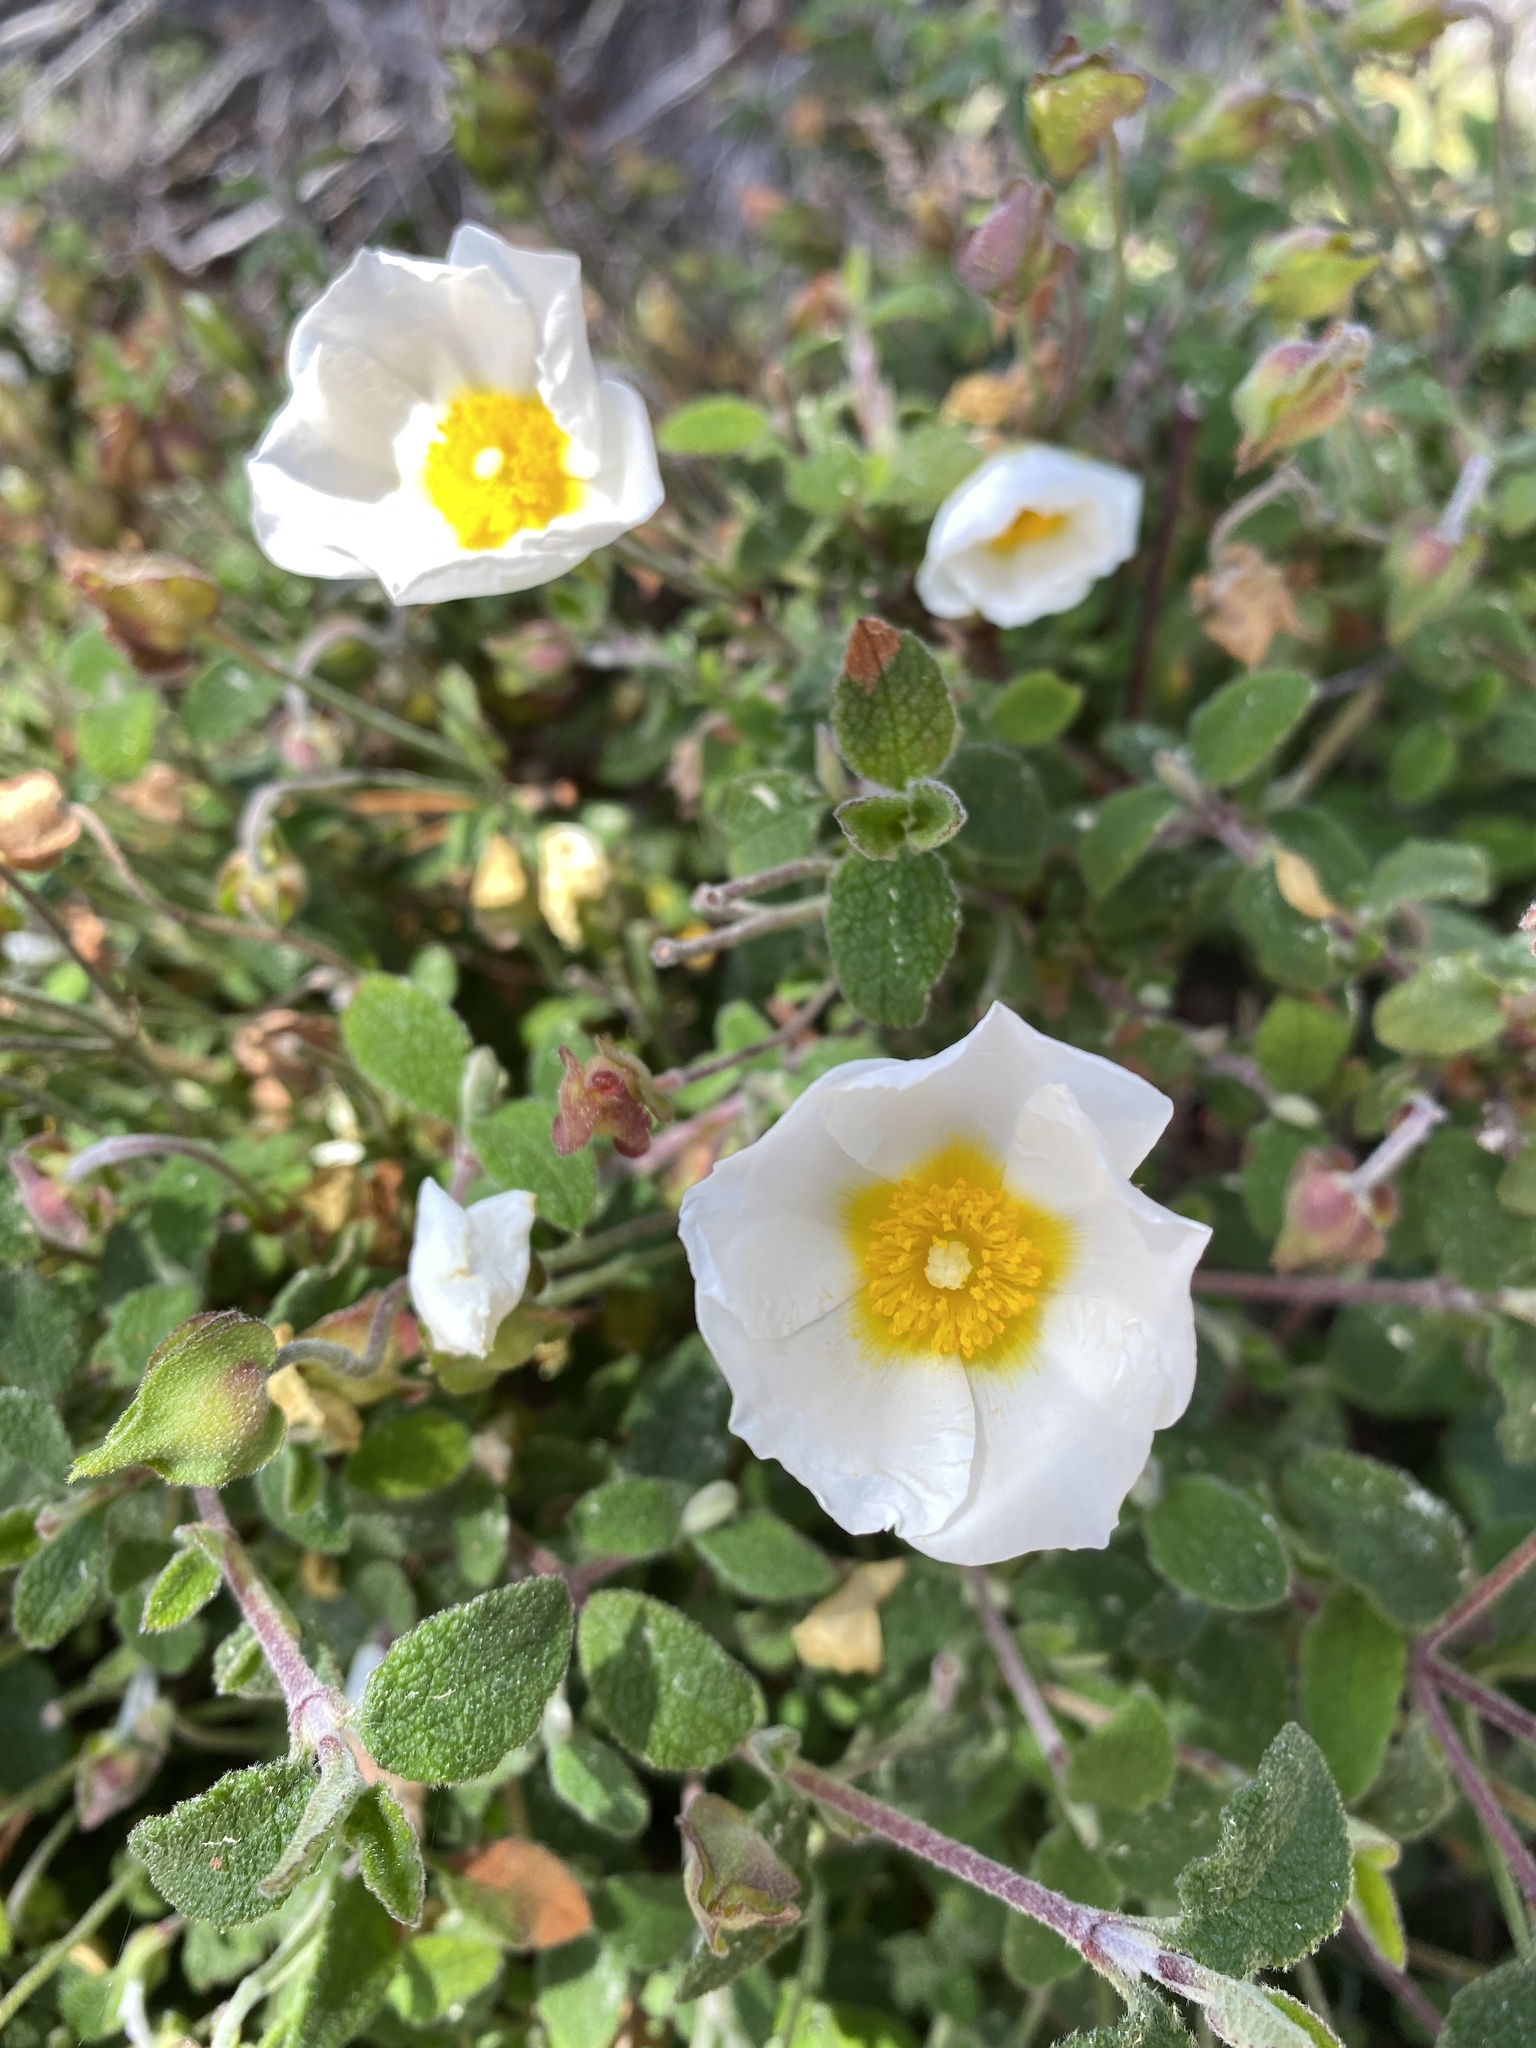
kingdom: Plantae
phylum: Tracheophyta
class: Magnoliopsida
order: Malvales
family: Cistaceae
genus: Cistus
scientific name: Cistus salviifolius
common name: Salvia cistus
